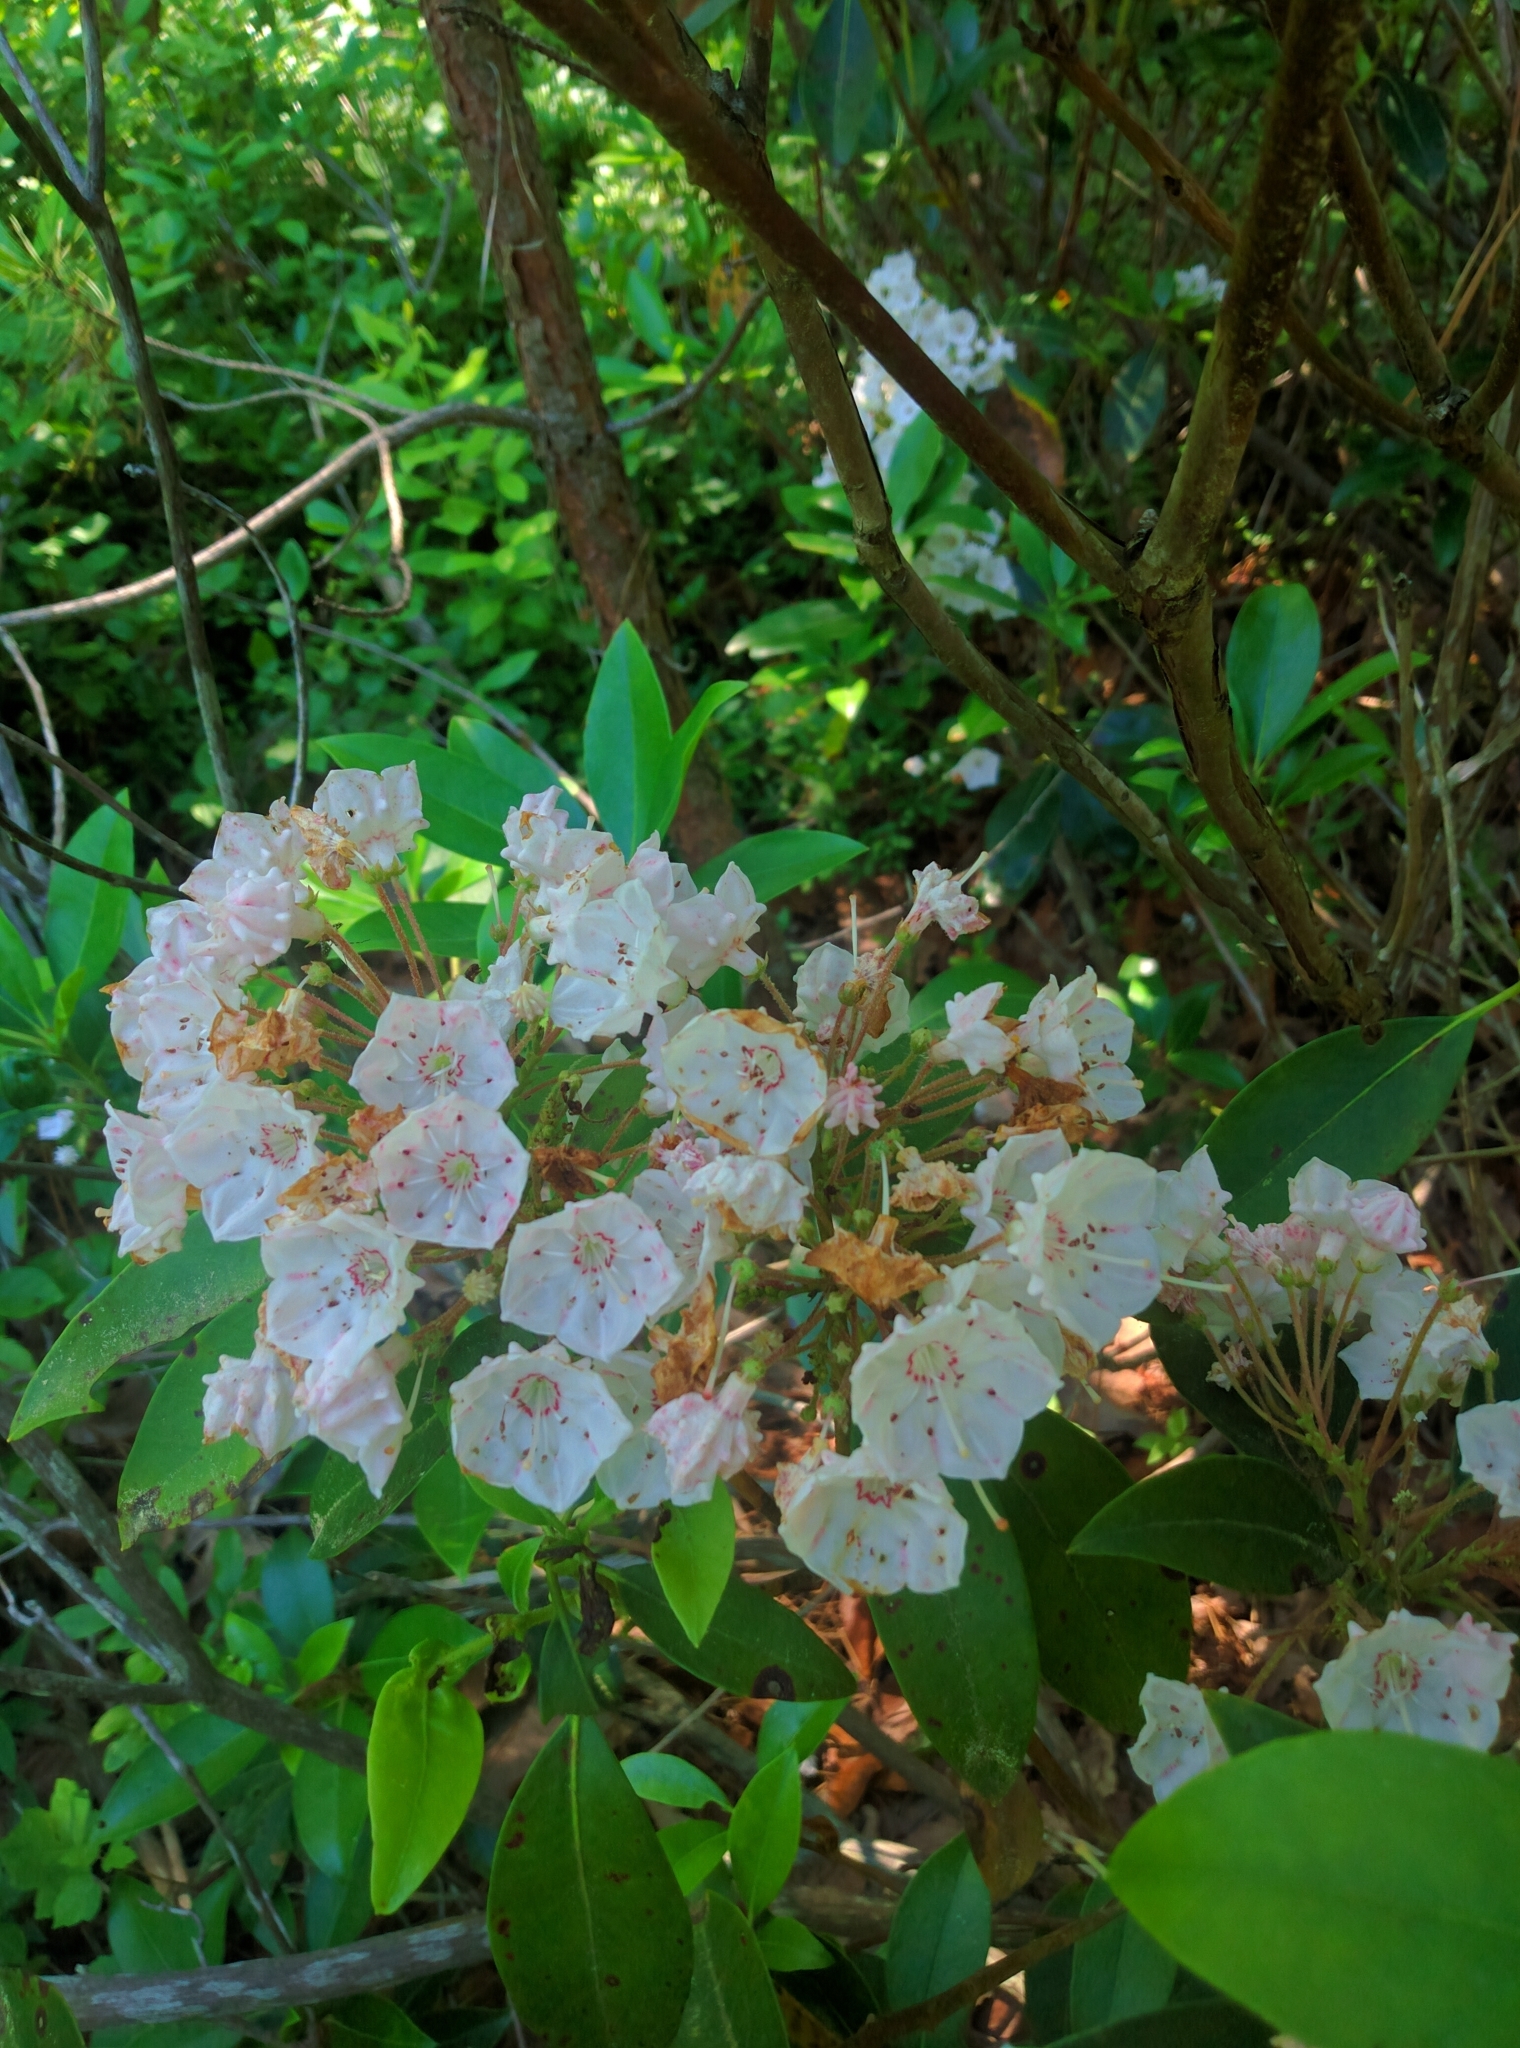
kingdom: Plantae
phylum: Tracheophyta
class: Magnoliopsida
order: Ericales
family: Ericaceae
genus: Kalmia
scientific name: Kalmia latifolia
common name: Mountain-laurel
